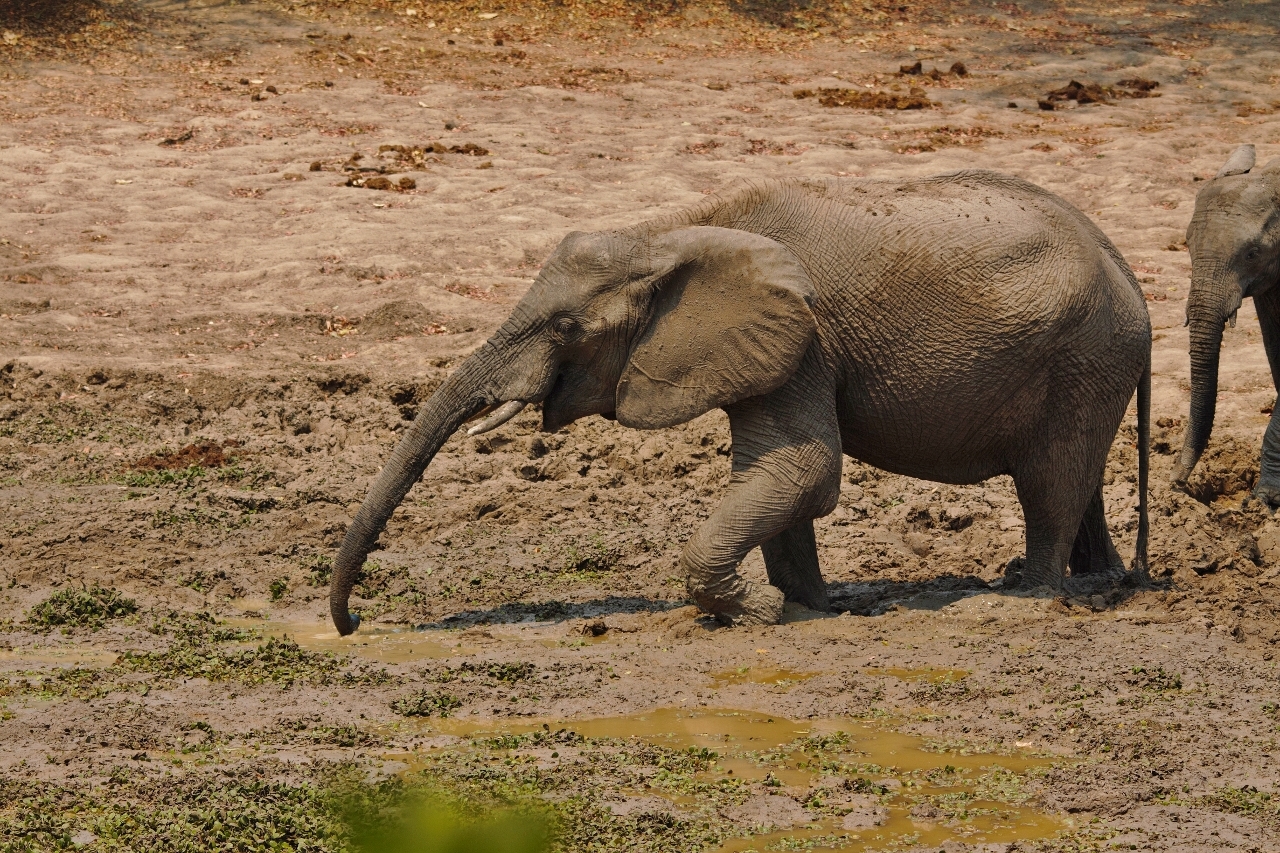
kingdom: Animalia
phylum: Chordata
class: Mammalia
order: Proboscidea
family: Elephantidae
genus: Loxodonta
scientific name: Loxodonta africana
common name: African elephant
